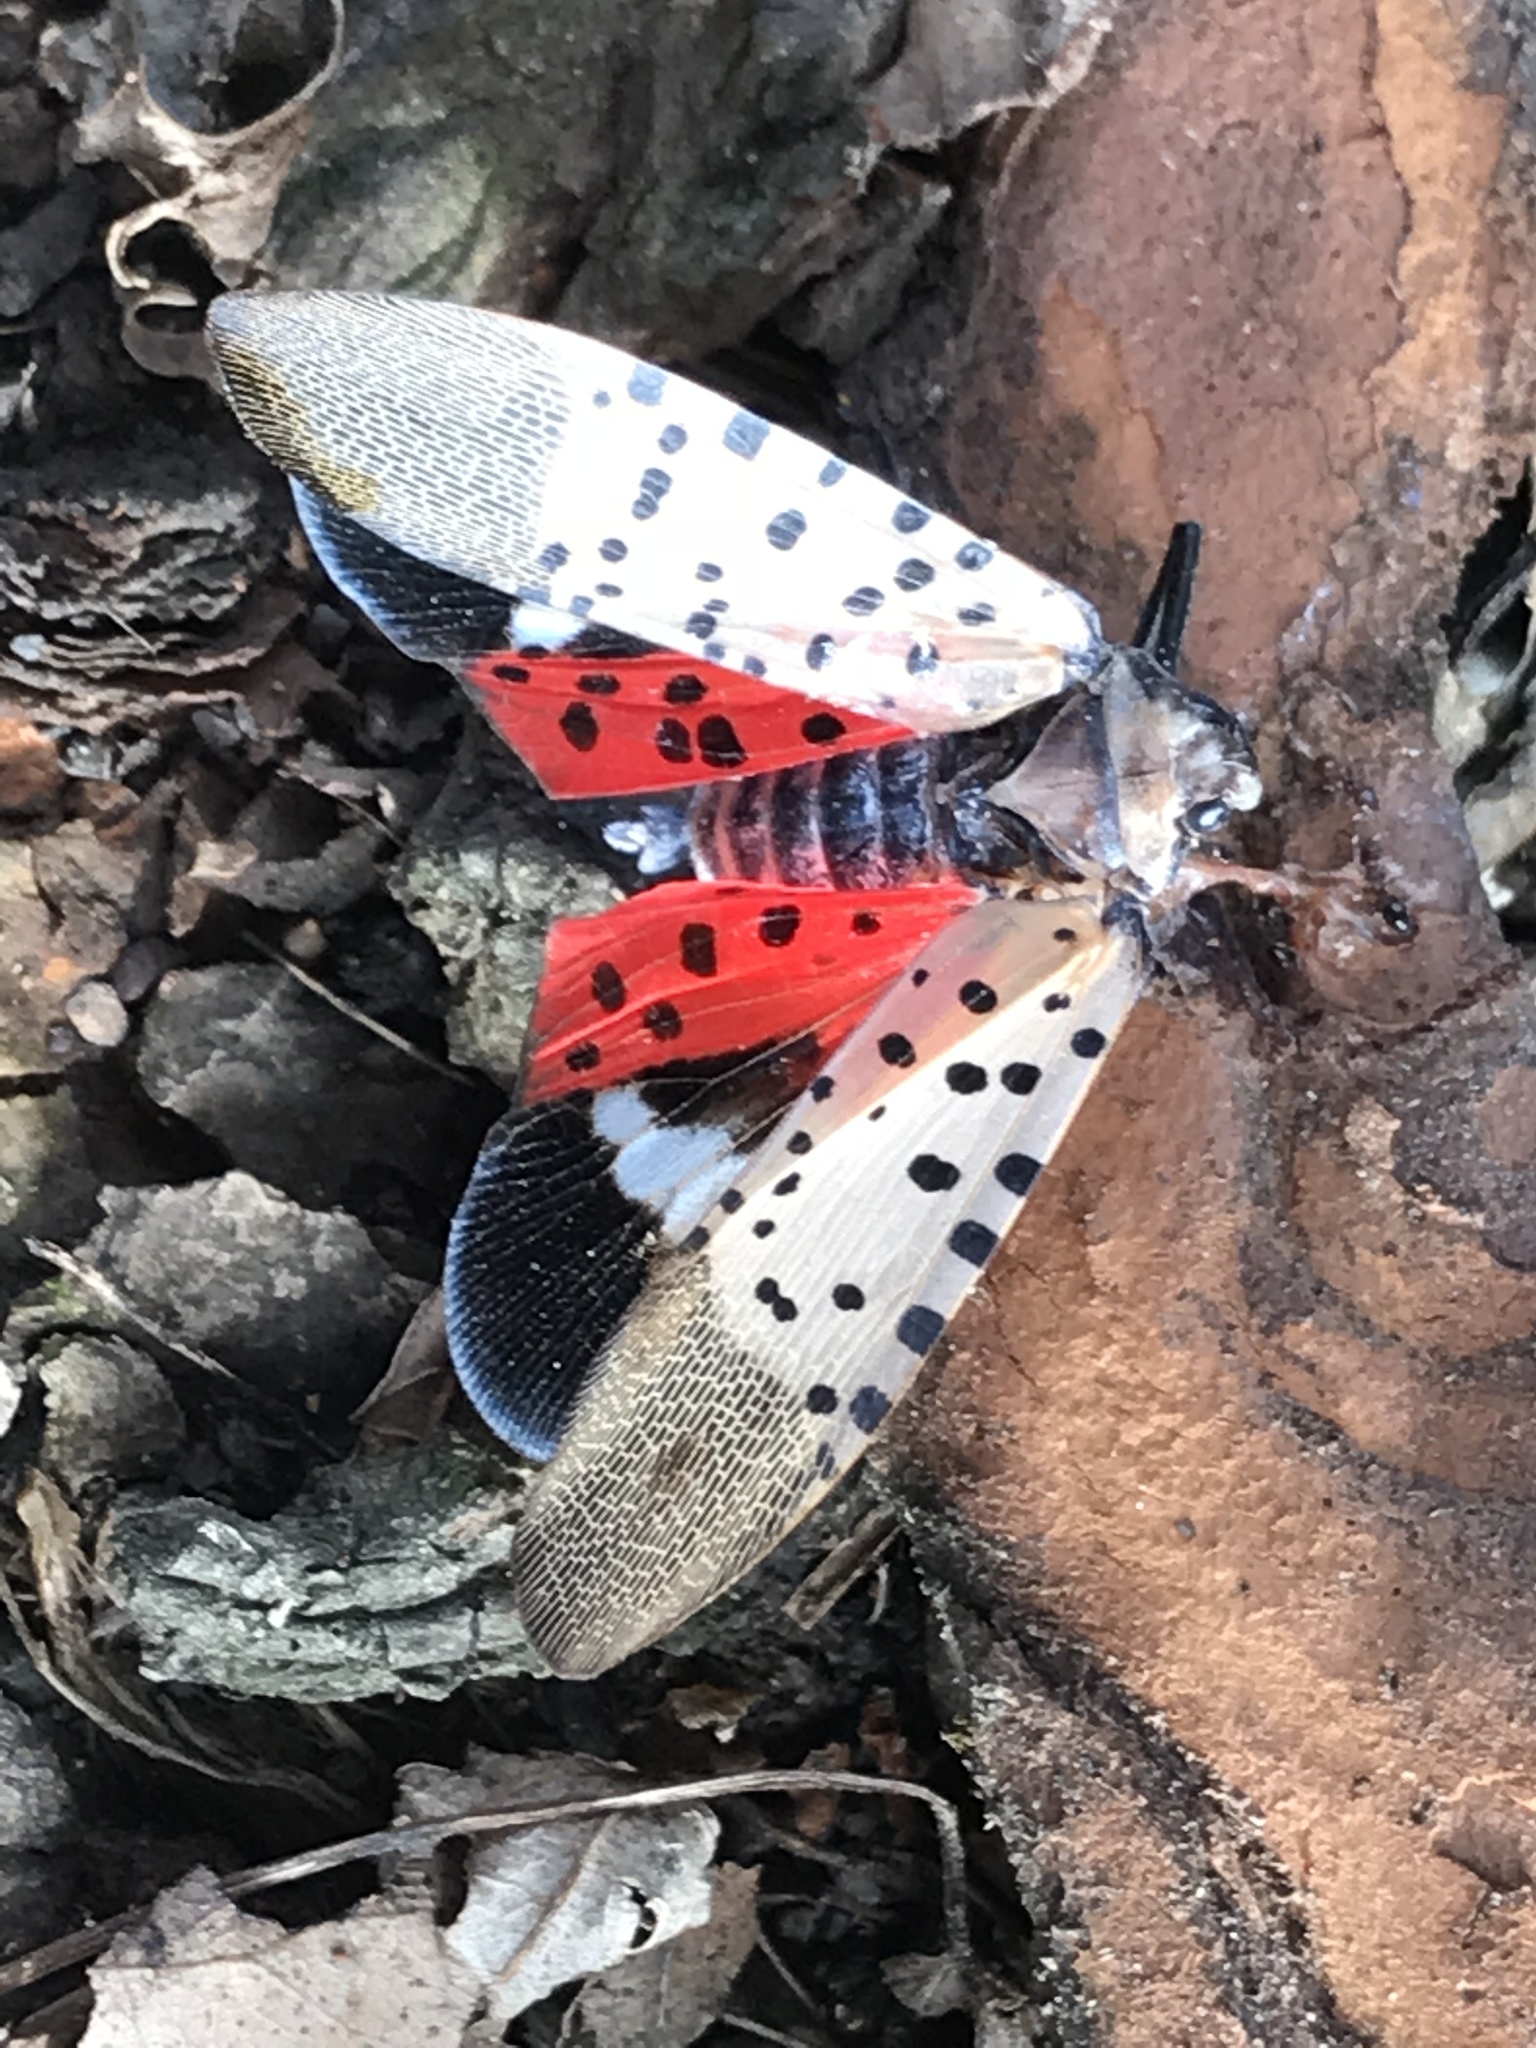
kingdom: Animalia
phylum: Arthropoda
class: Insecta
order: Hemiptera
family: Fulgoridae
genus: Lycorma
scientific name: Lycorma delicatula
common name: Spotted lanternfly
